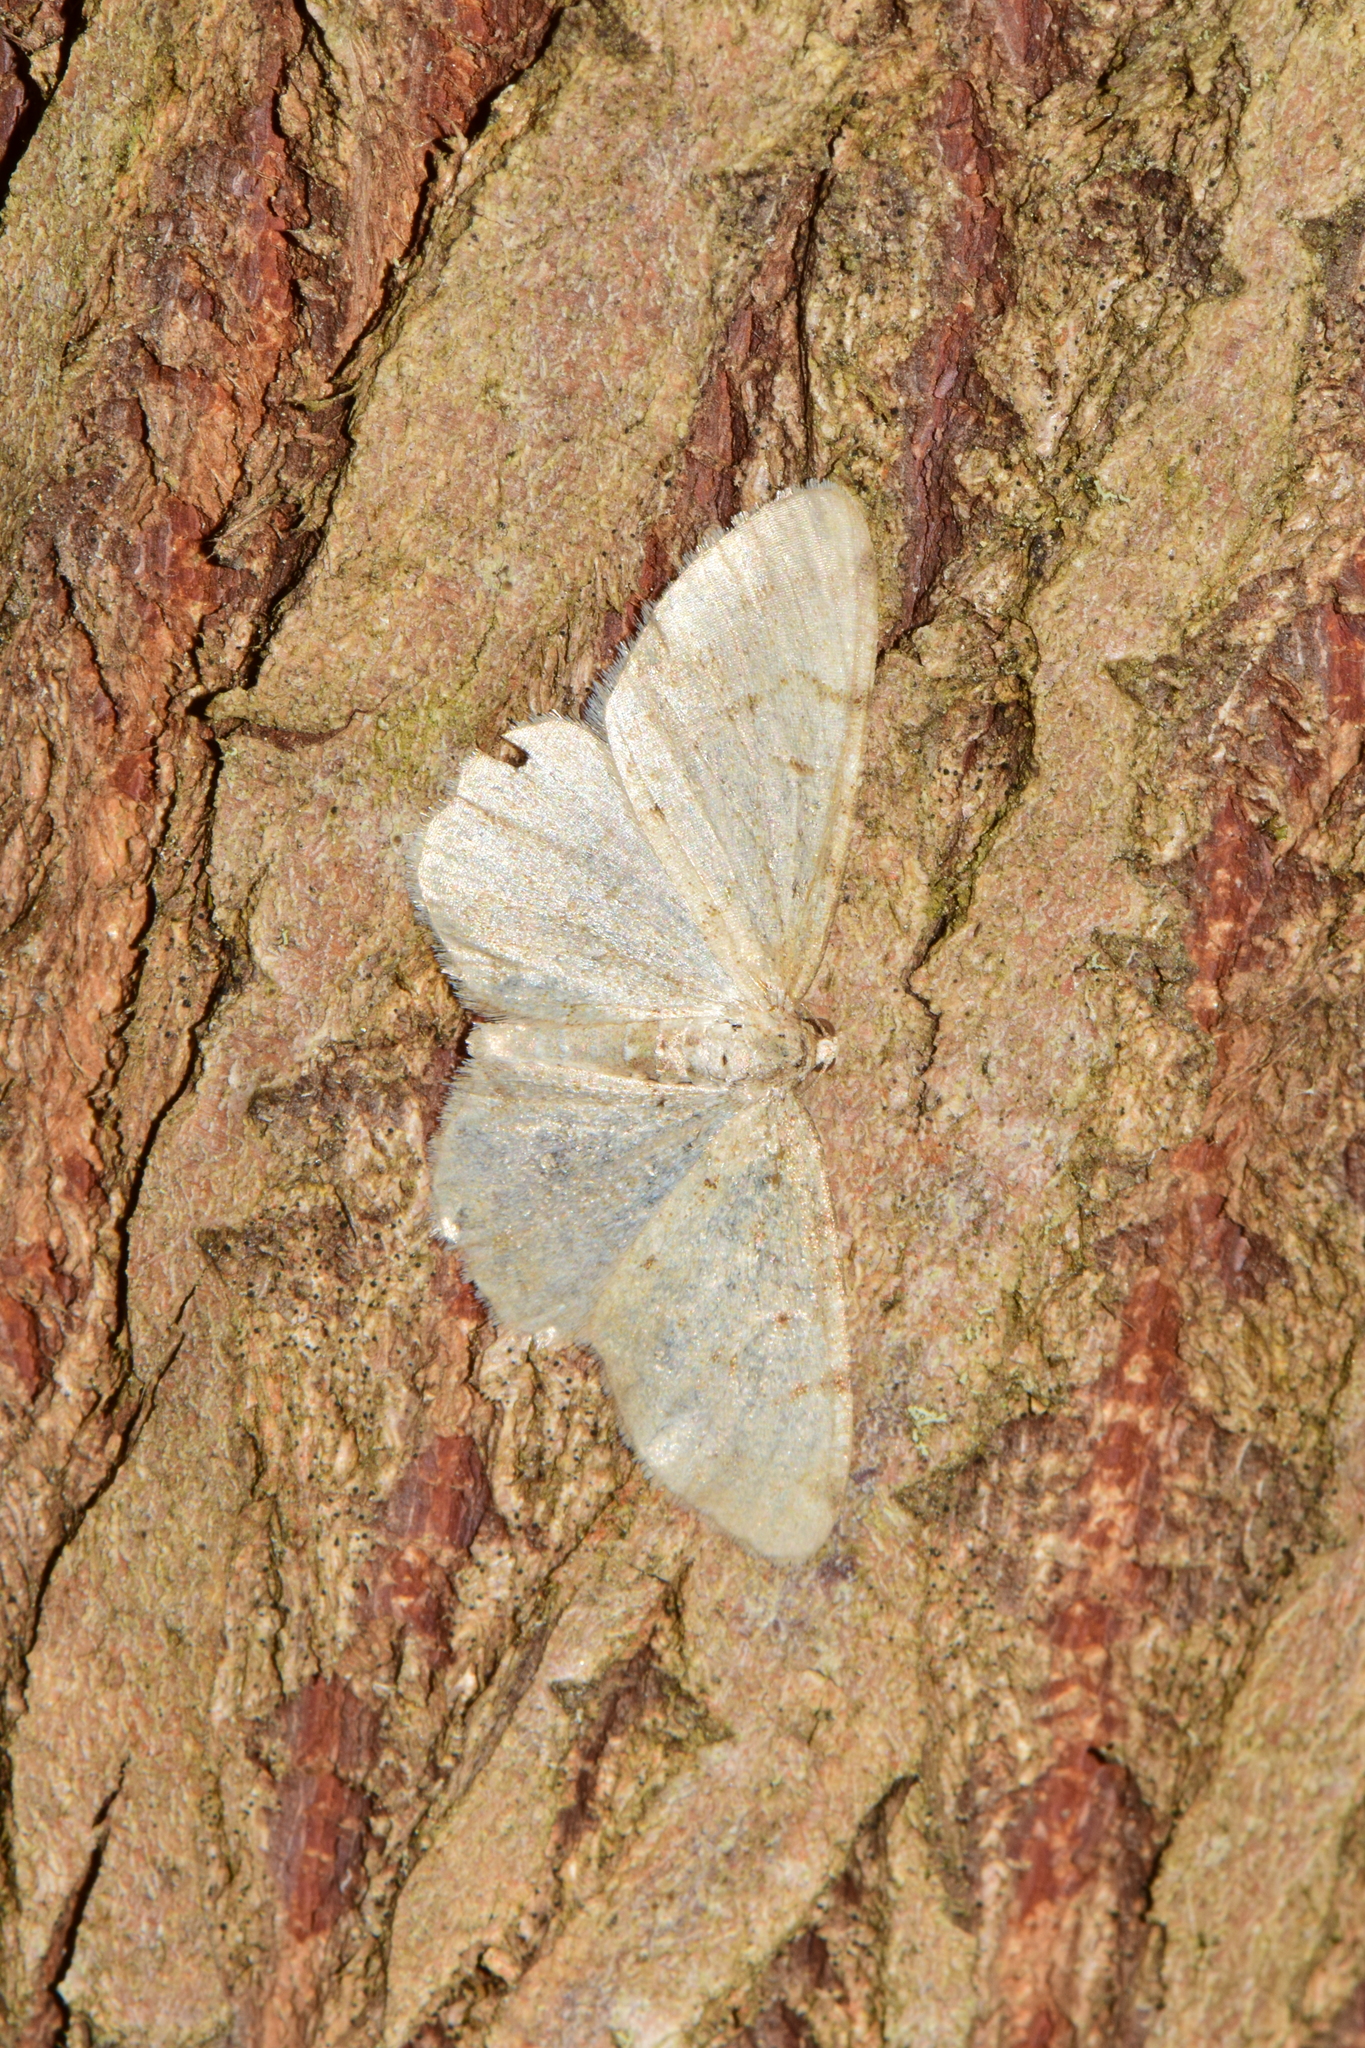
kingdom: Animalia
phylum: Arthropoda
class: Insecta
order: Lepidoptera
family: Geometridae
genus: Aethalura
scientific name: Aethalura punctulata
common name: Grey birch
